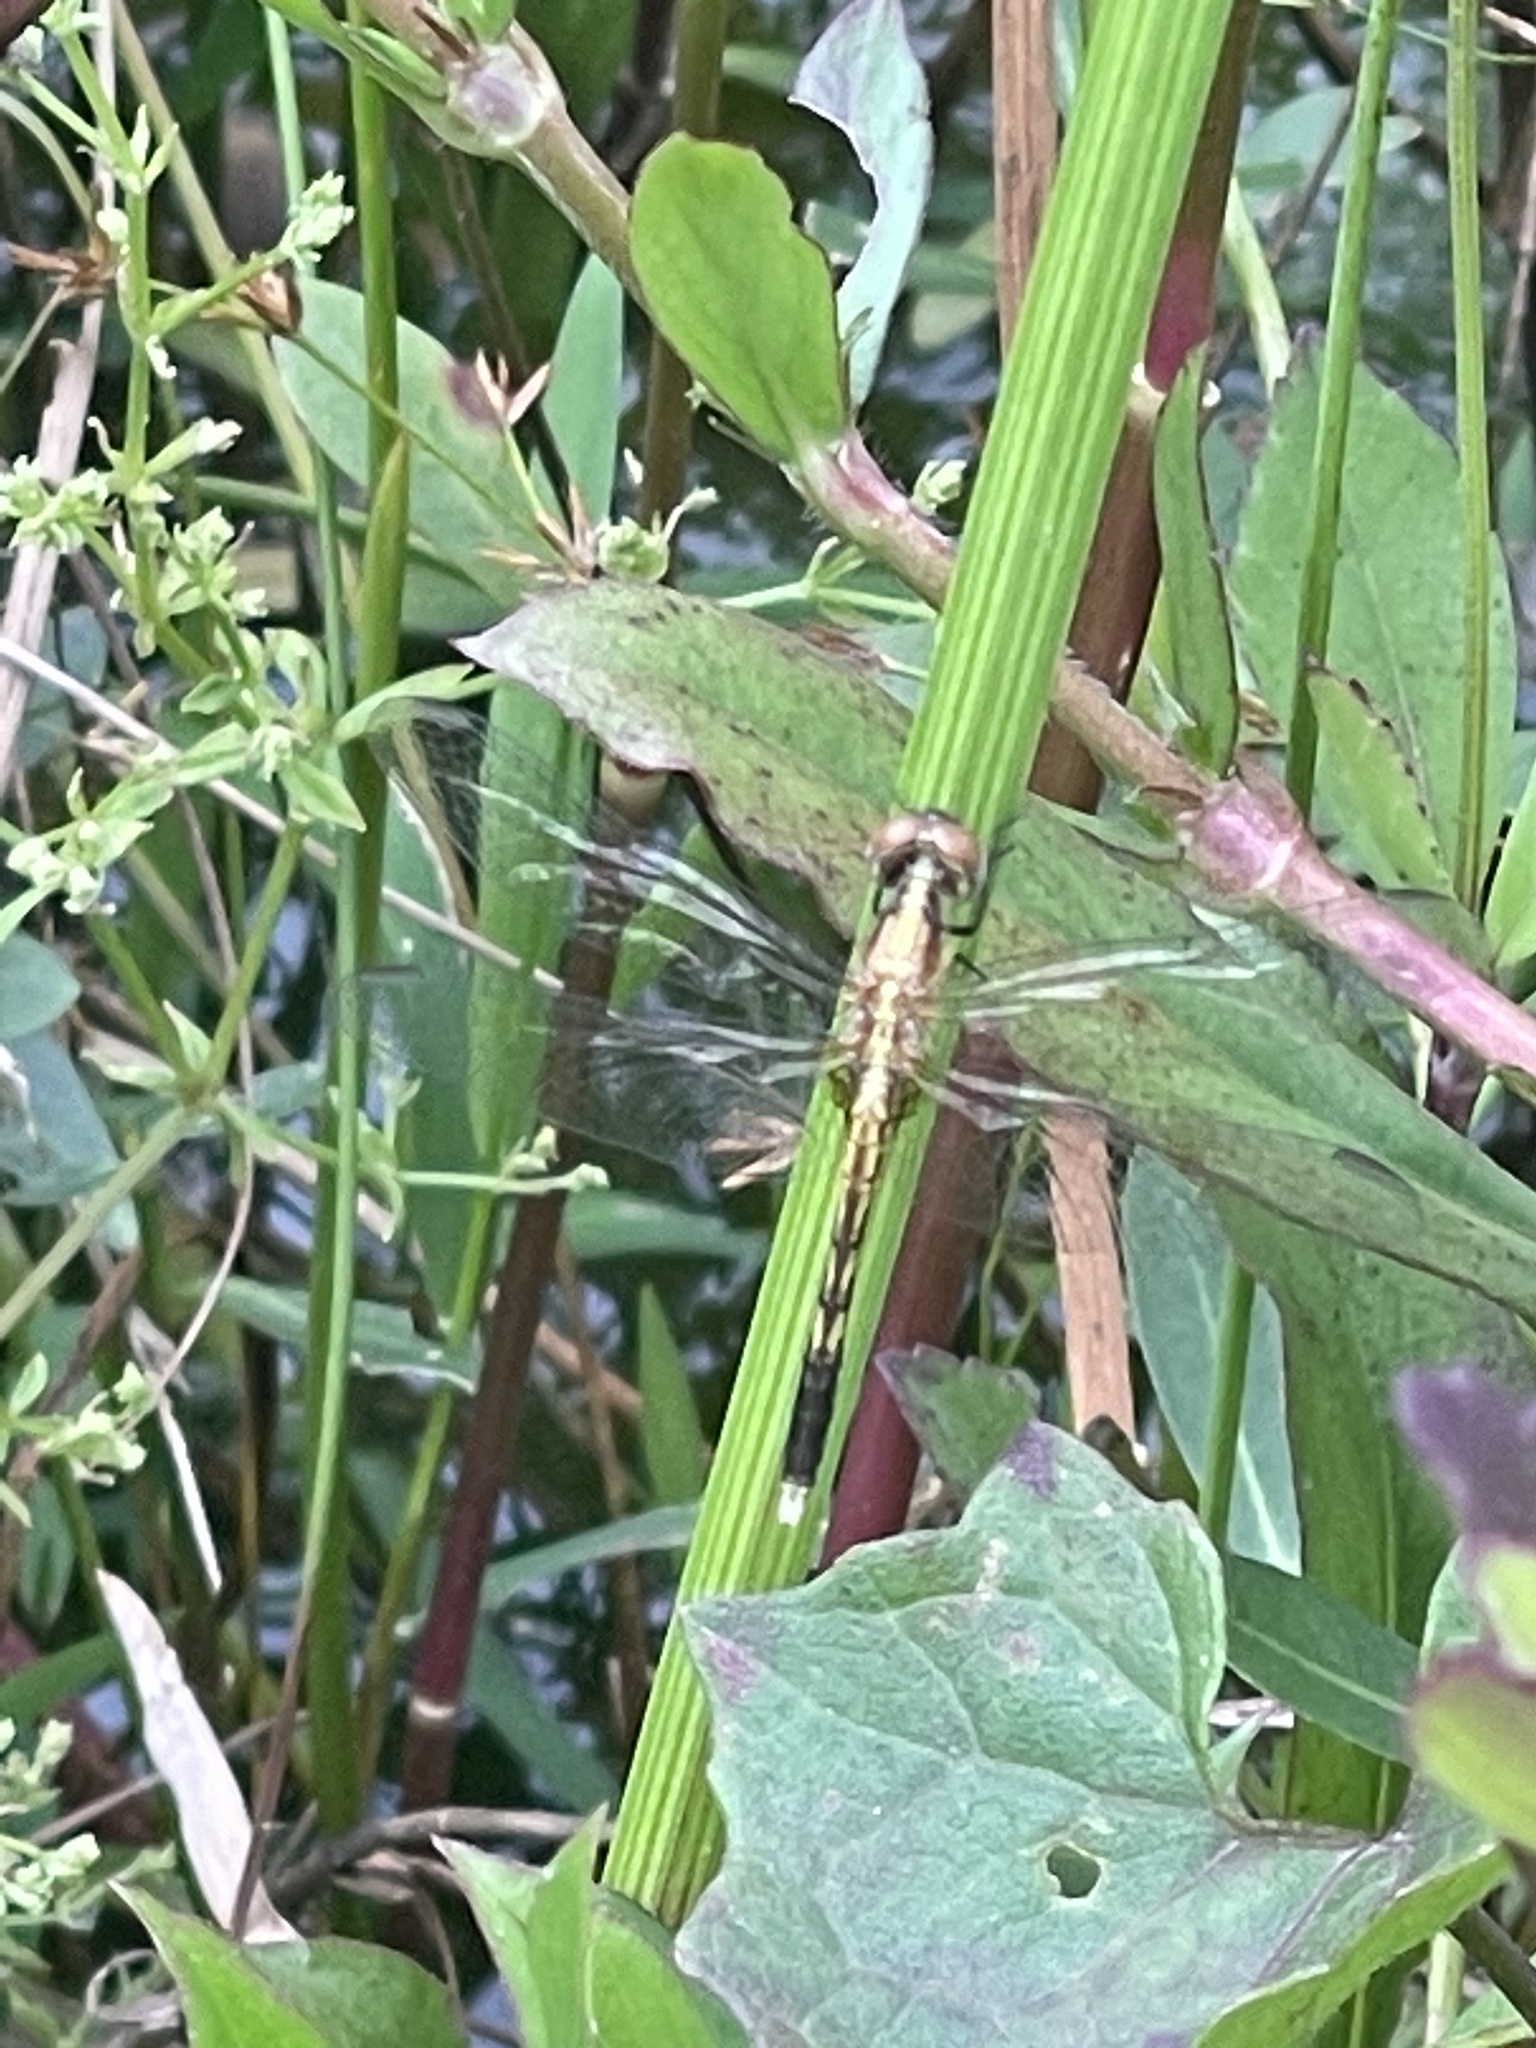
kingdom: Animalia
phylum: Arthropoda
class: Insecta
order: Odonata
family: Libellulidae
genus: Erythrodiplax
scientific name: Erythrodiplax minuscula
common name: Little blue dragonlet
